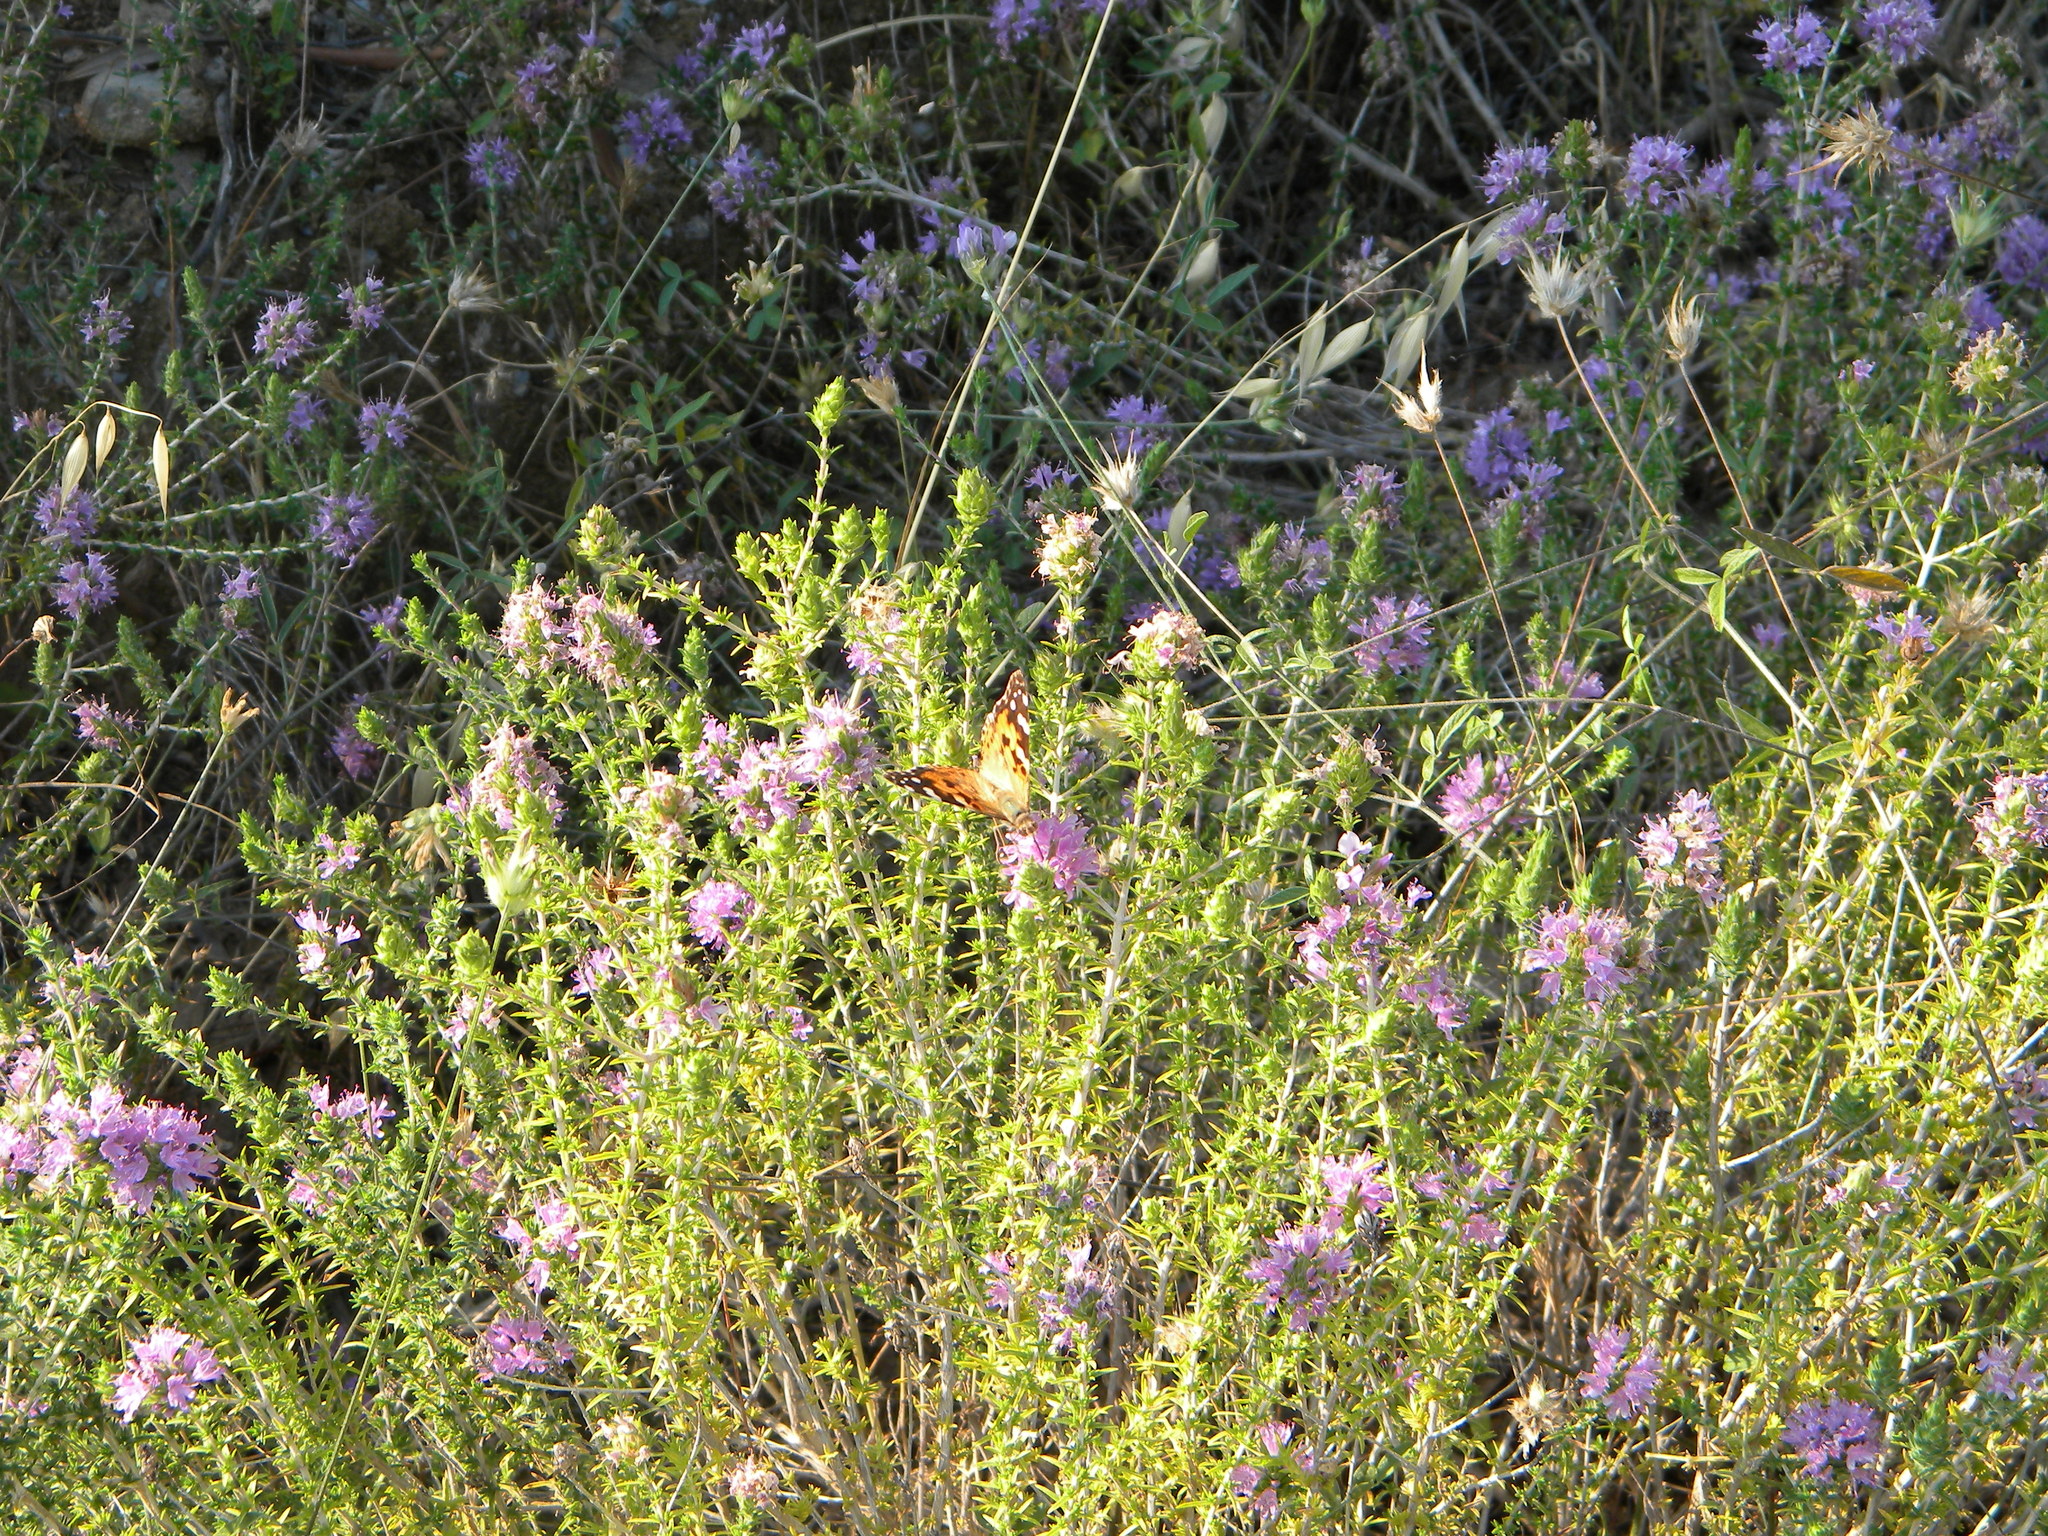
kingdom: Animalia
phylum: Arthropoda
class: Insecta
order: Lepidoptera
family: Nymphalidae
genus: Vanessa
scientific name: Vanessa cardui
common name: Painted lady
